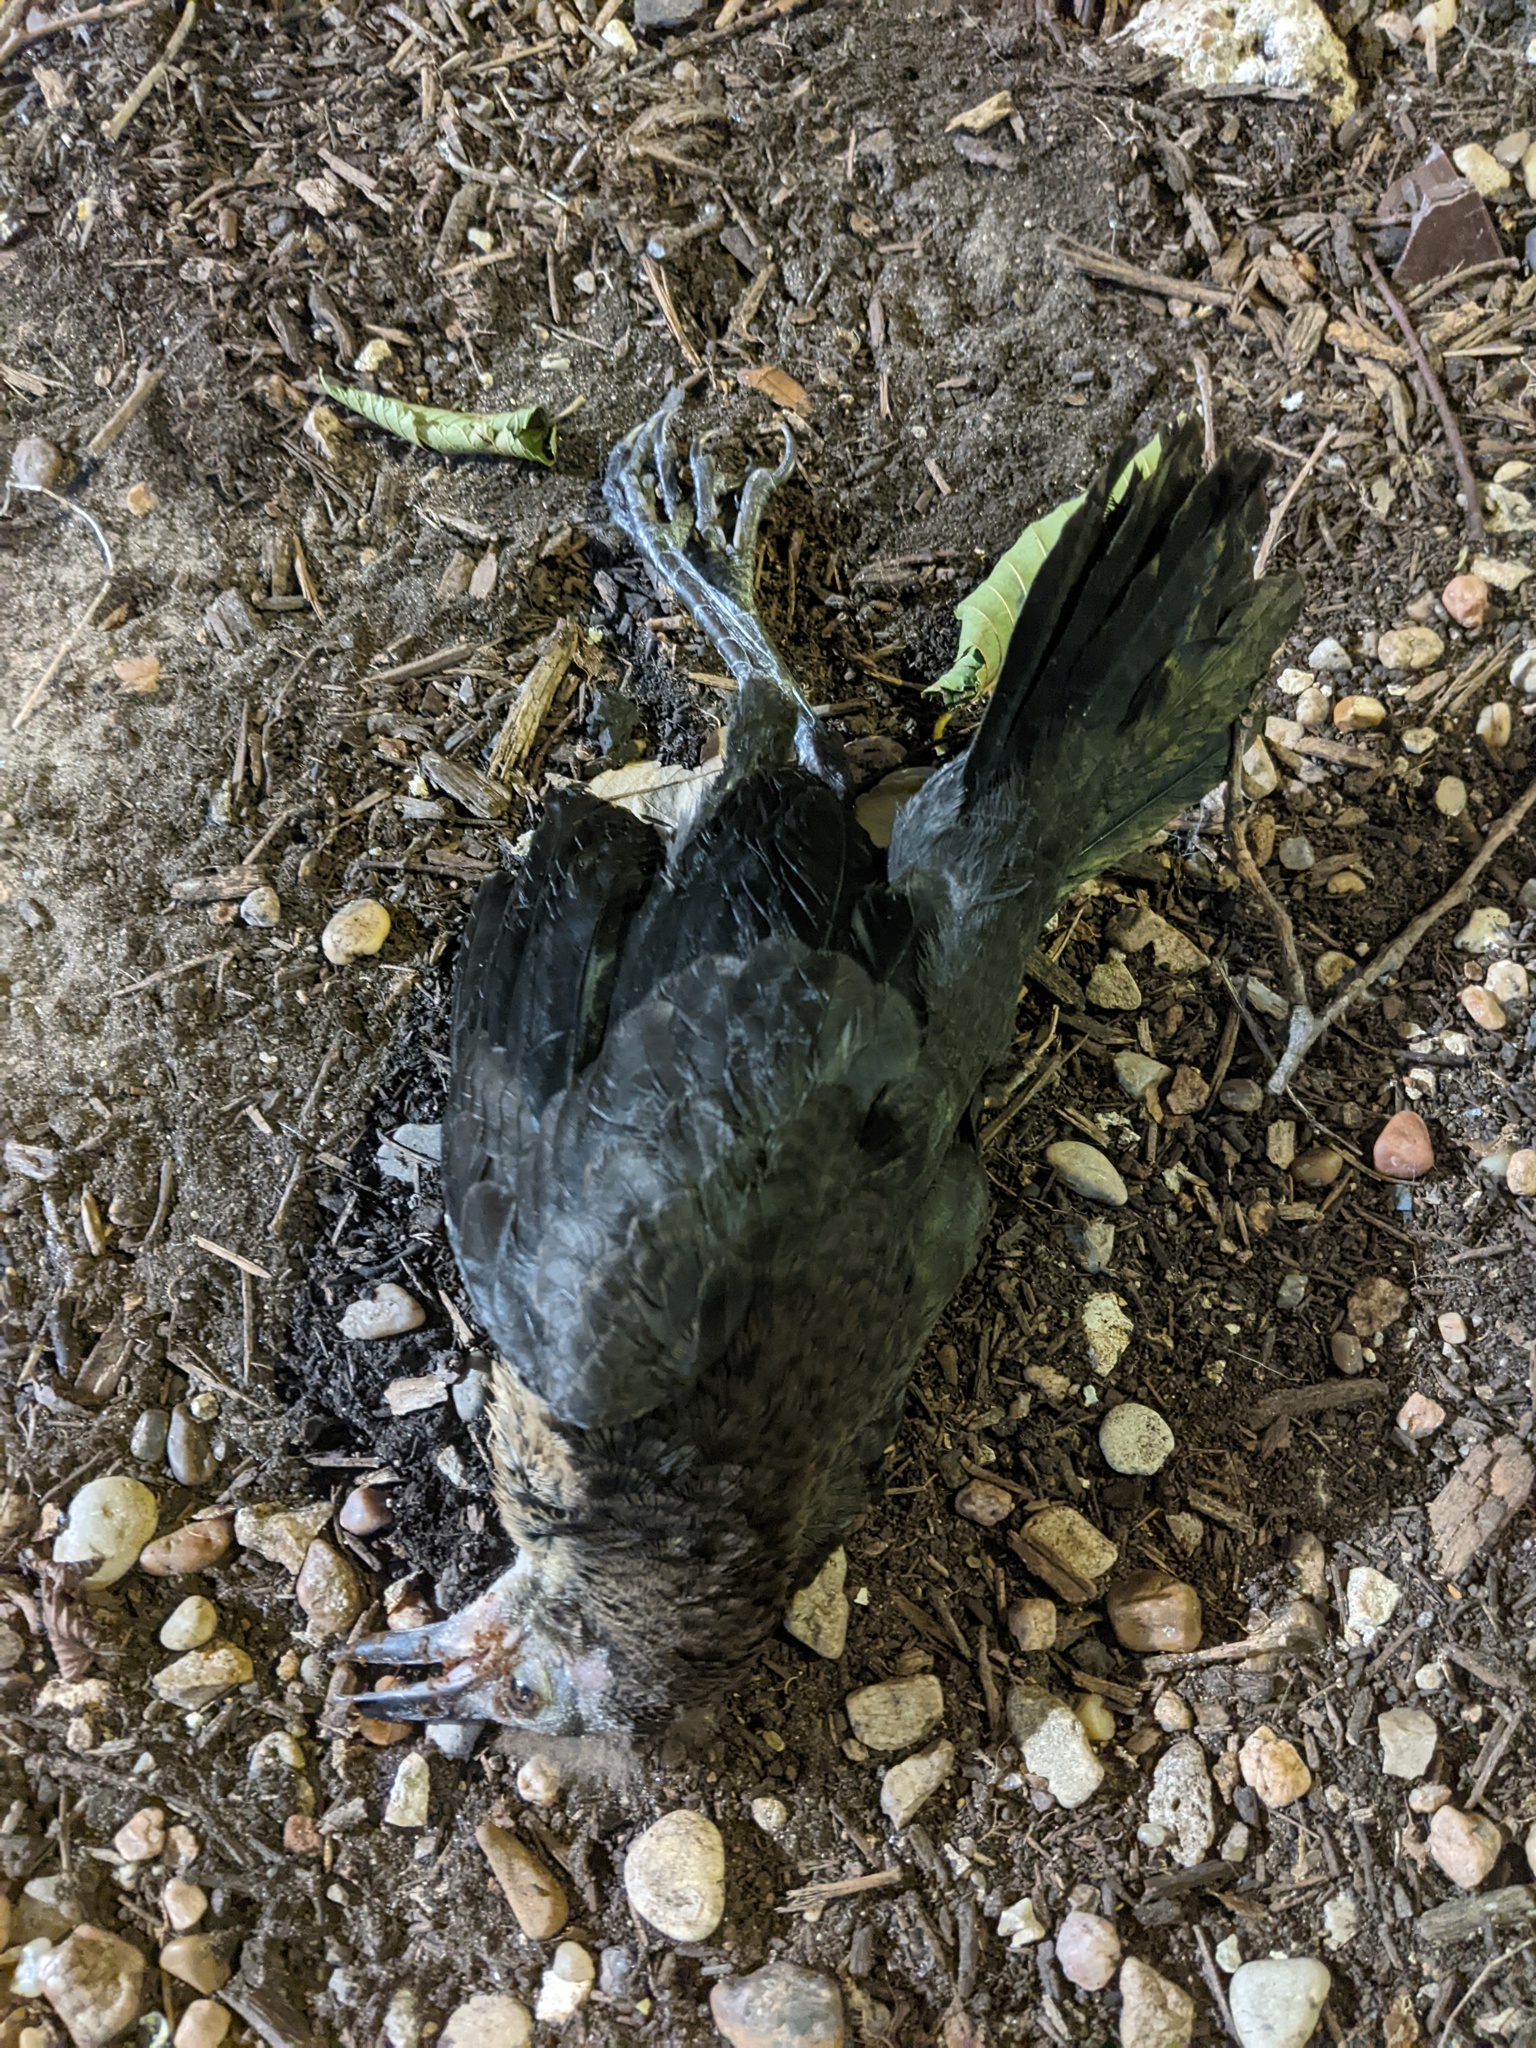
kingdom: Animalia
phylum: Chordata
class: Aves
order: Passeriformes
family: Icteridae
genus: Quiscalus
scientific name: Quiscalus mexicanus
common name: Great-tailed grackle
